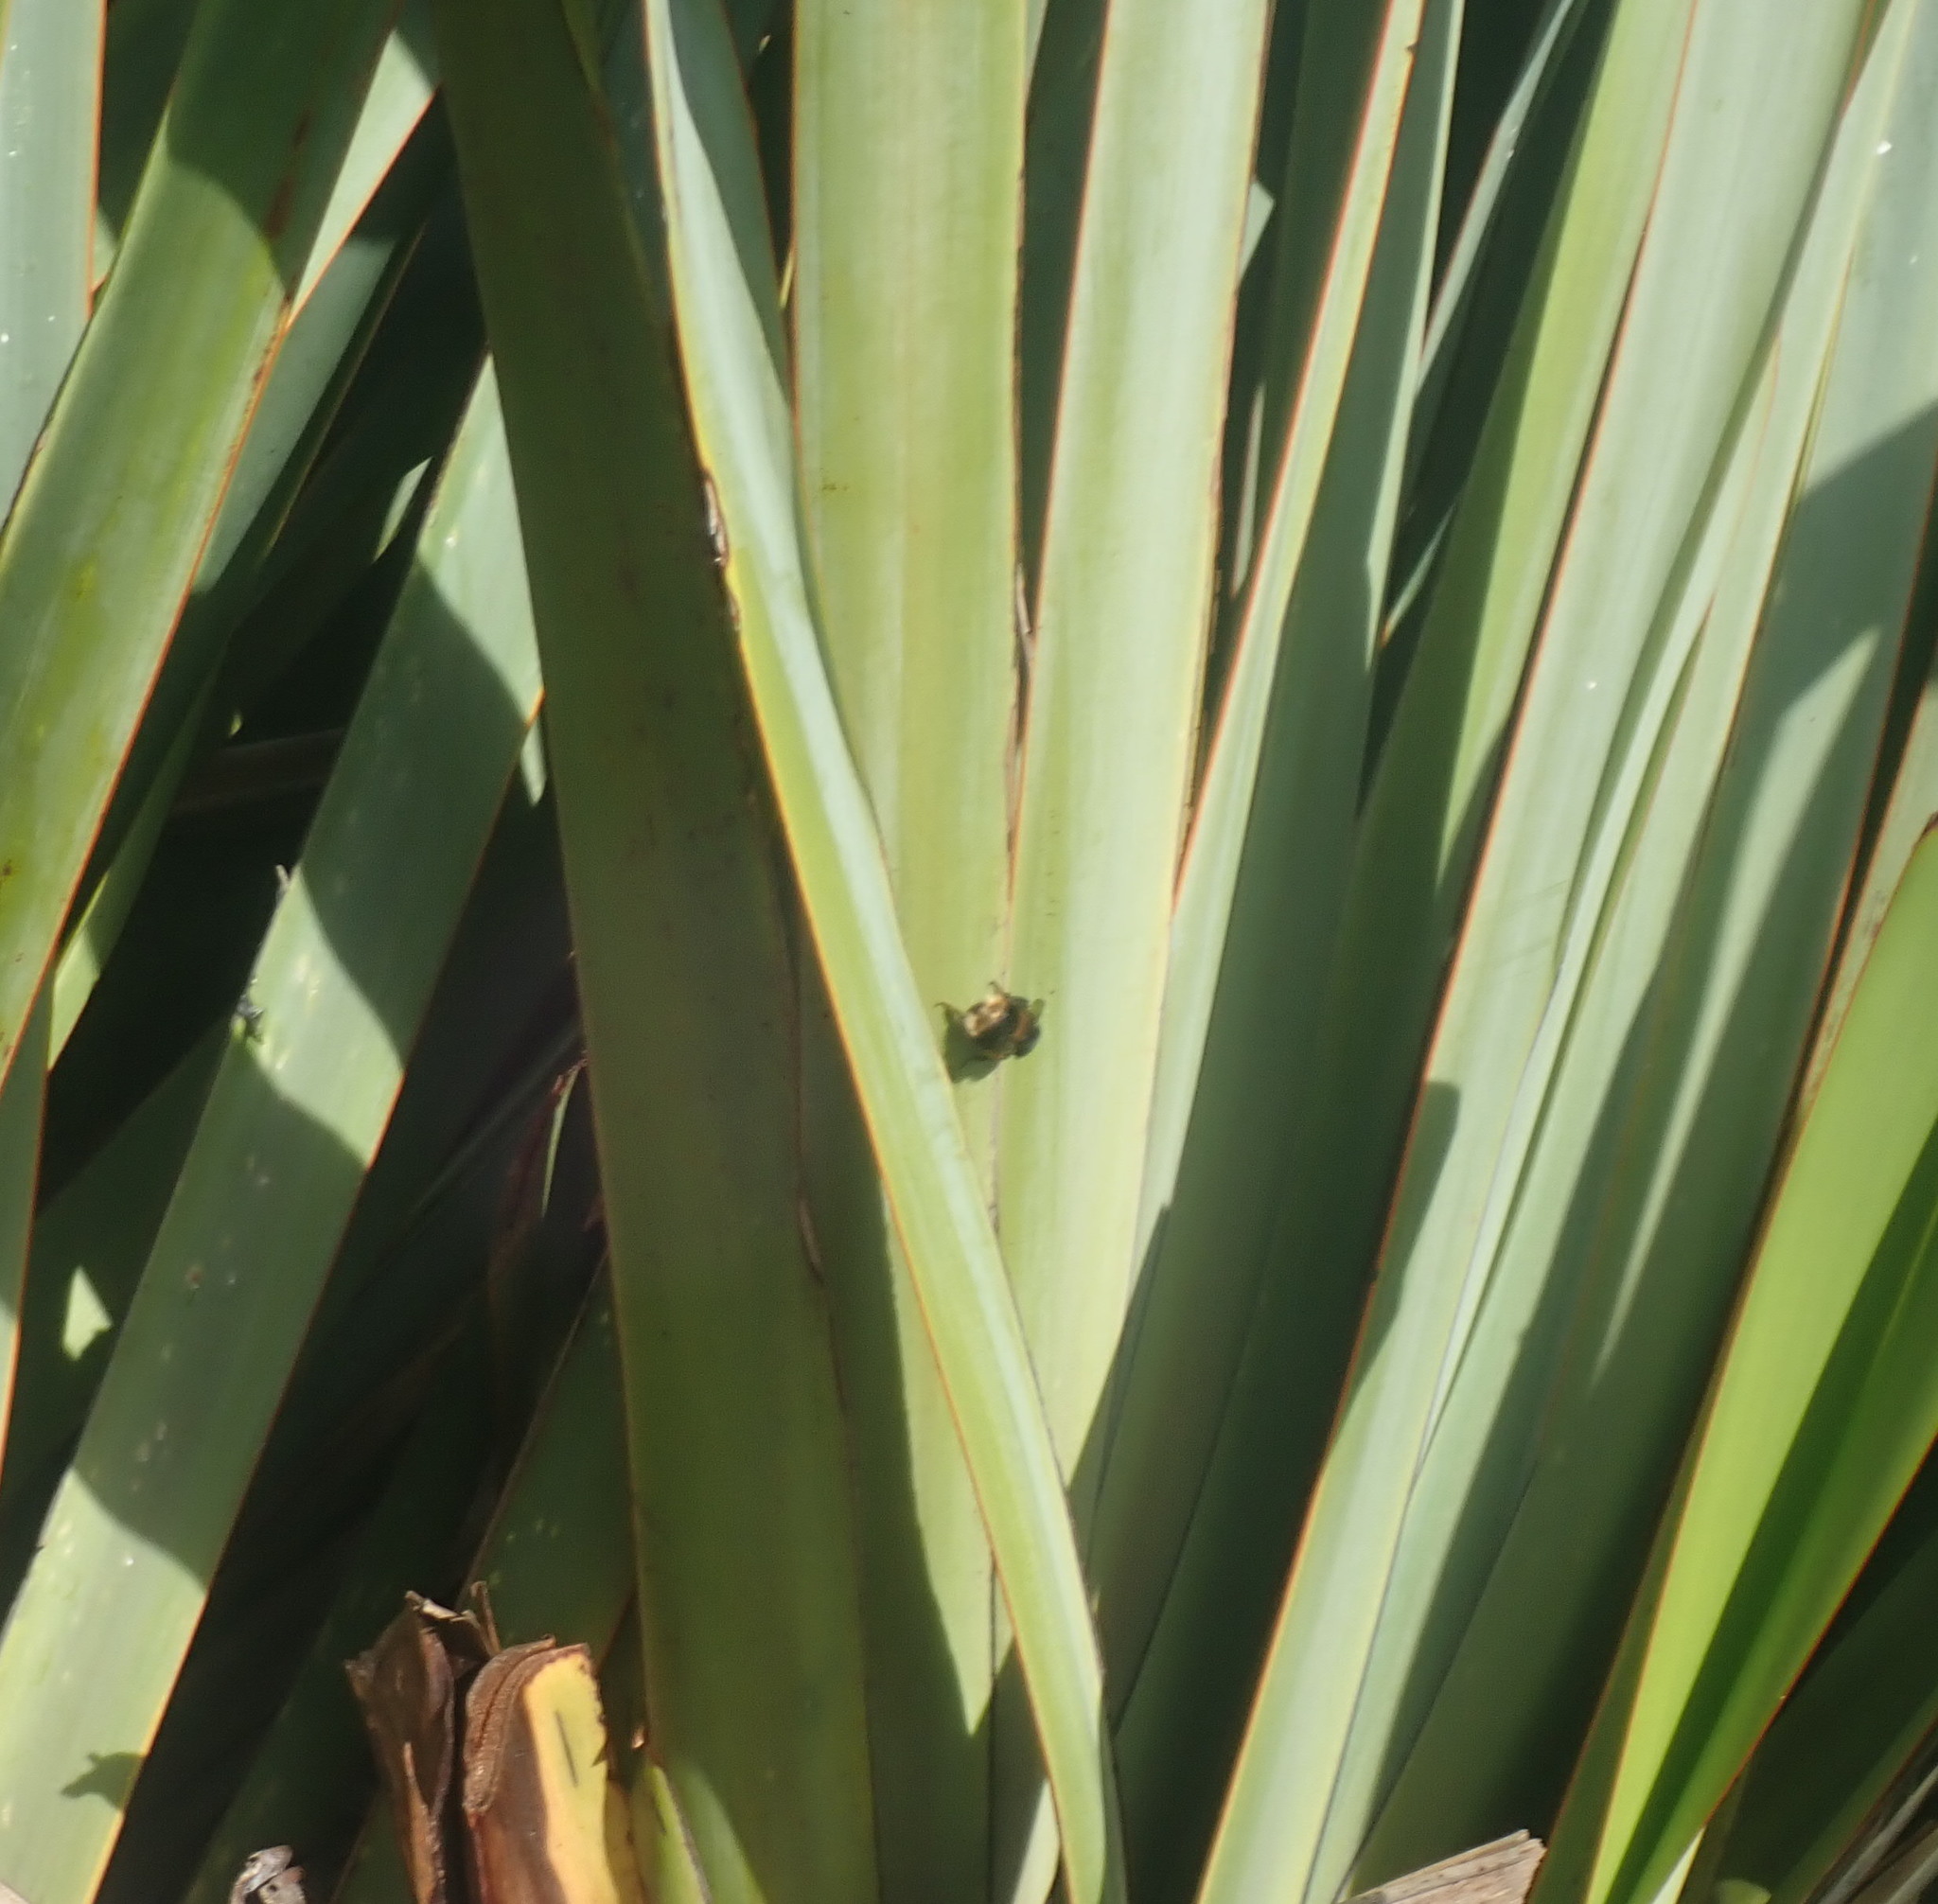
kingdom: Animalia
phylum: Arthropoda
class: Insecta
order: Hymenoptera
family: Apidae
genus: Bombus
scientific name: Bombus terrestris
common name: Buff-tailed bumblebee
